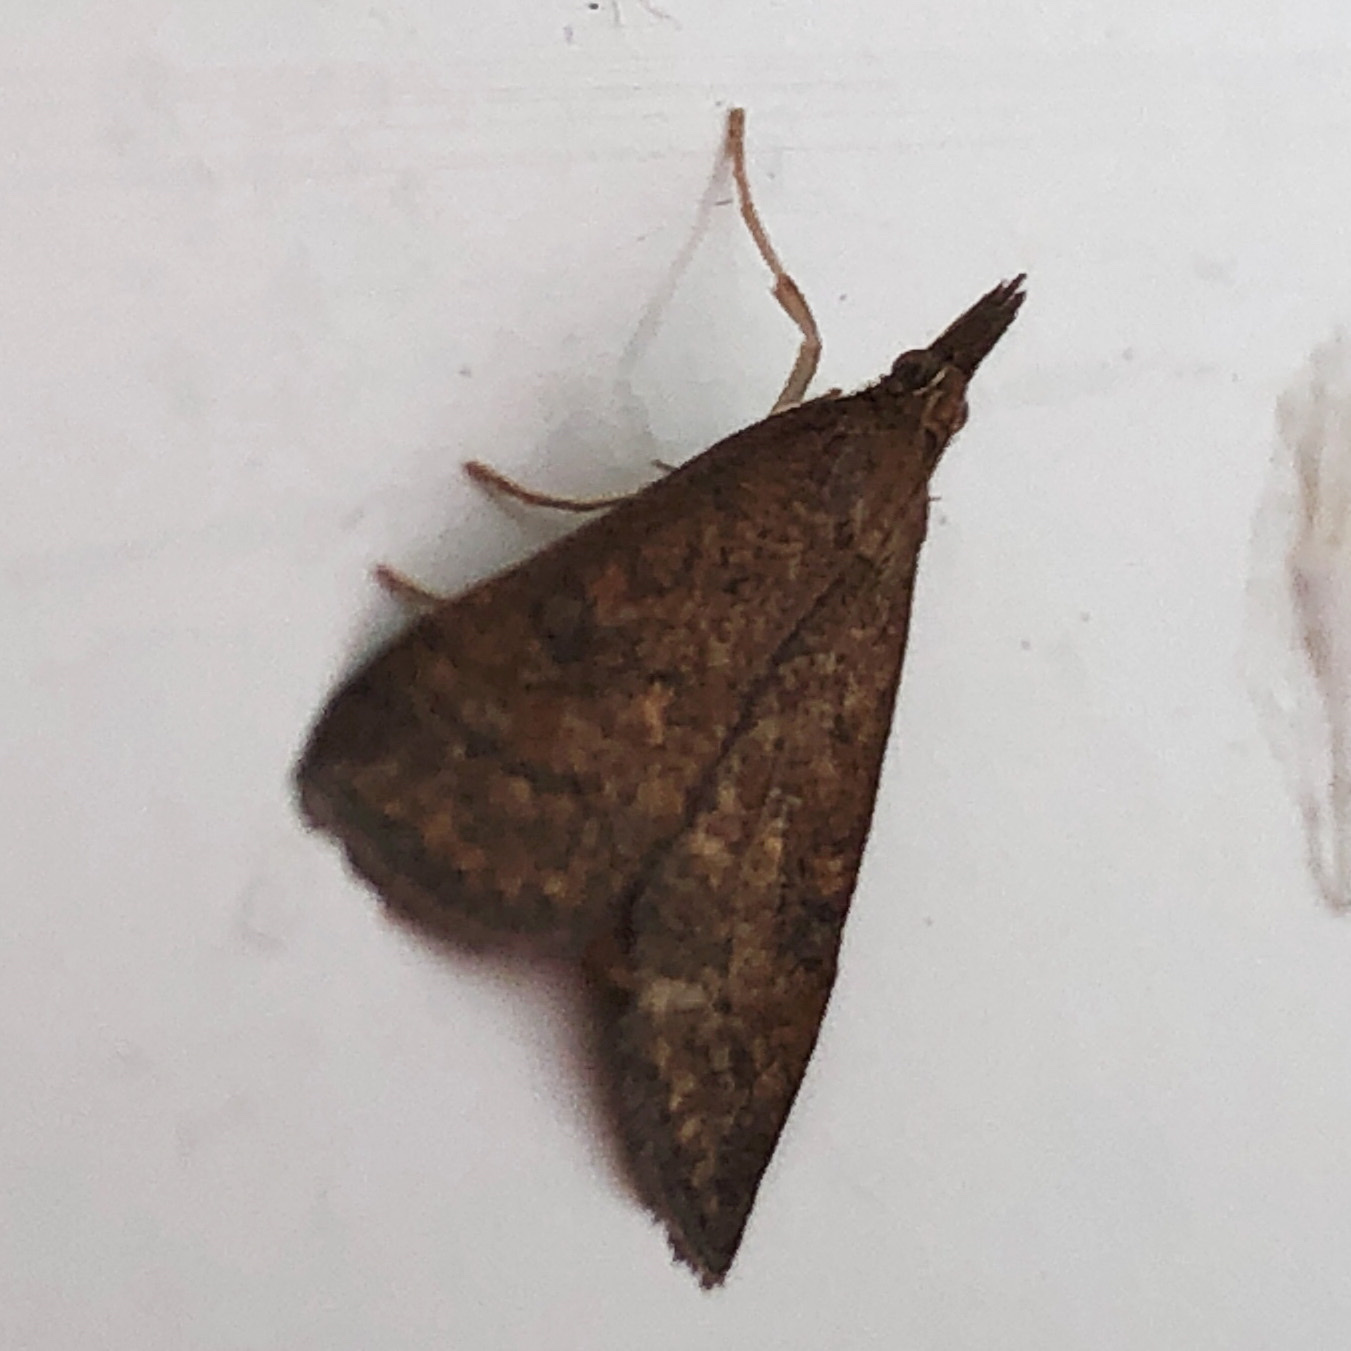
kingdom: Animalia
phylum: Arthropoda
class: Insecta
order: Lepidoptera
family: Crambidae
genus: Udea
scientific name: Udea rubigalis
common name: Celery leaftier moth
